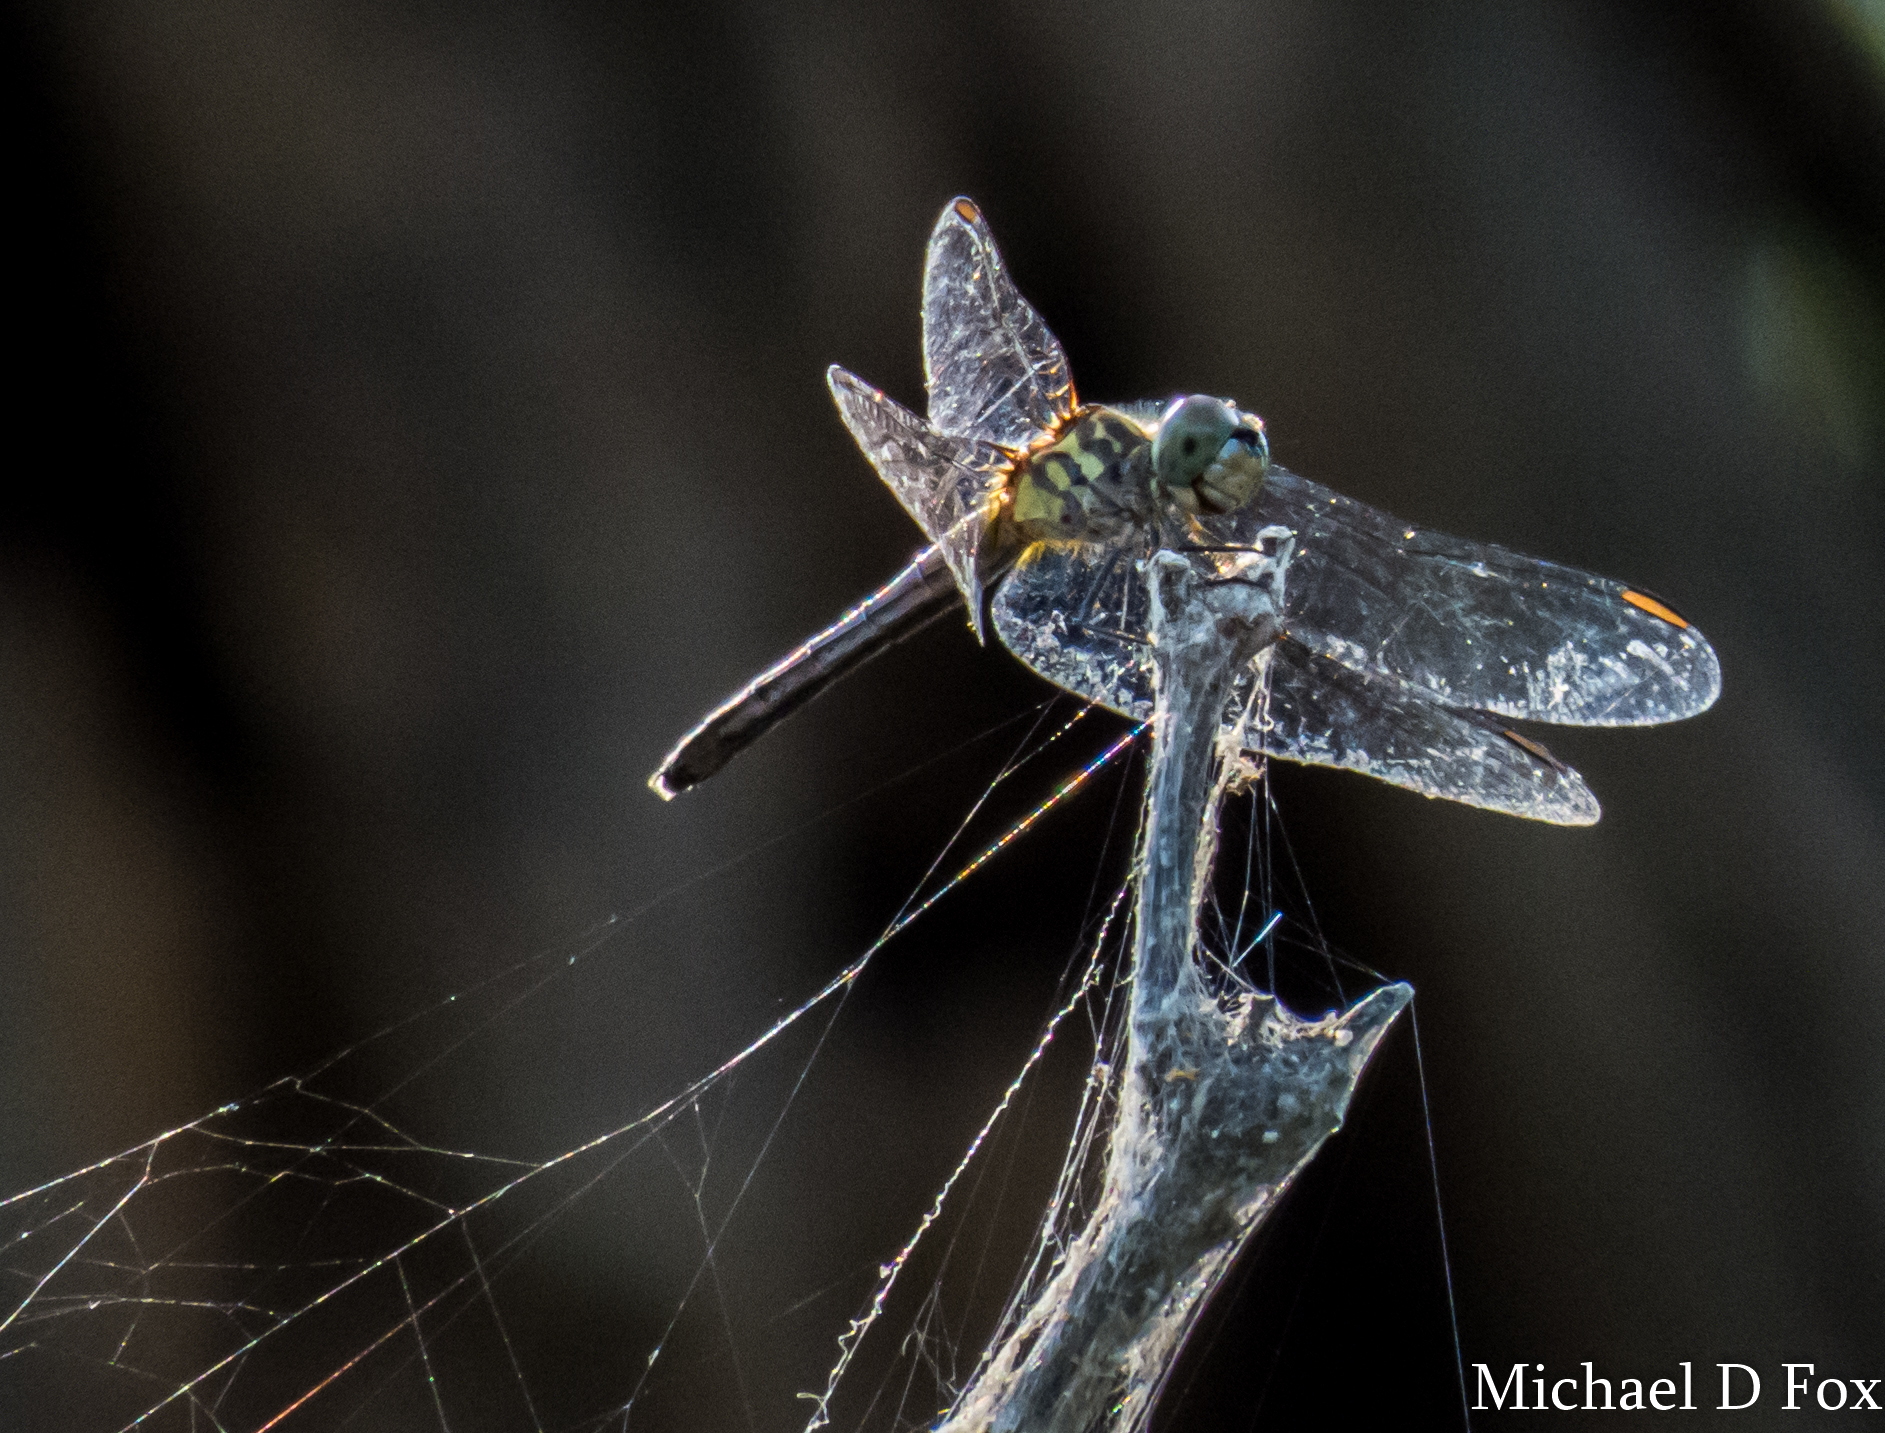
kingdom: Animalia
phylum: Arthropoda
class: Insecta
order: Odonata
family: Libellulidae
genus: Pachydiplax
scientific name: Pachydiplax longipennis
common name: Blue dasher
